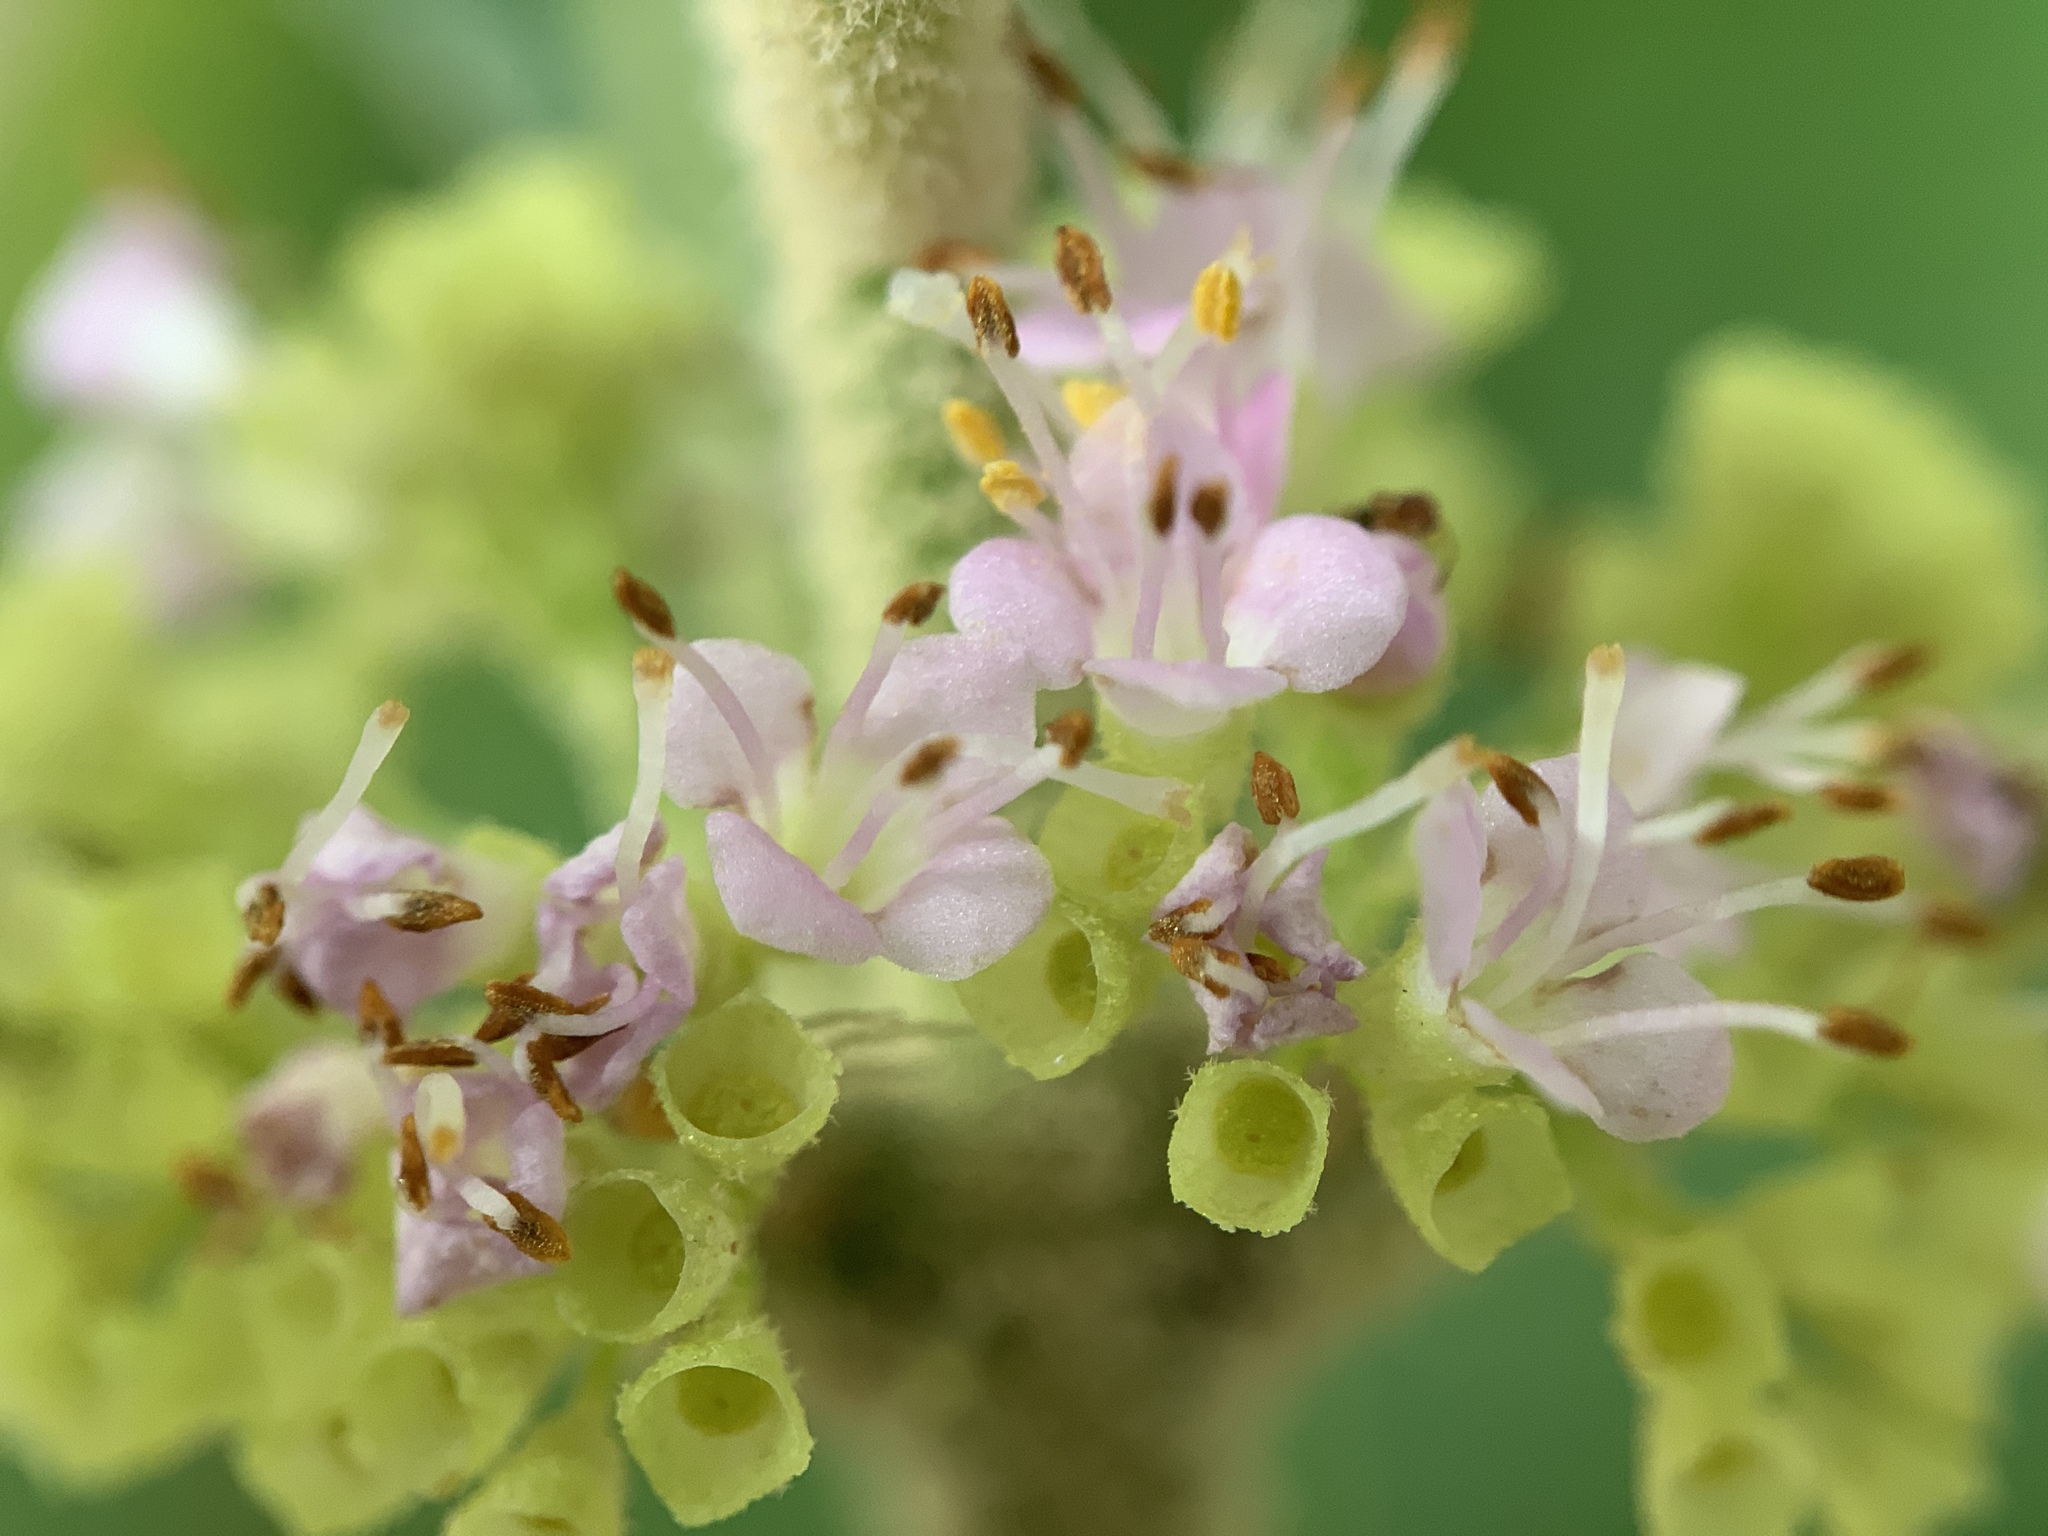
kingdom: Plantae
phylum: Tracheophyta
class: Magnoliopsida
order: Lamiales
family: Lamiaceae
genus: Callicarpa
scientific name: Callicarpa americana
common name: American beautyberry
